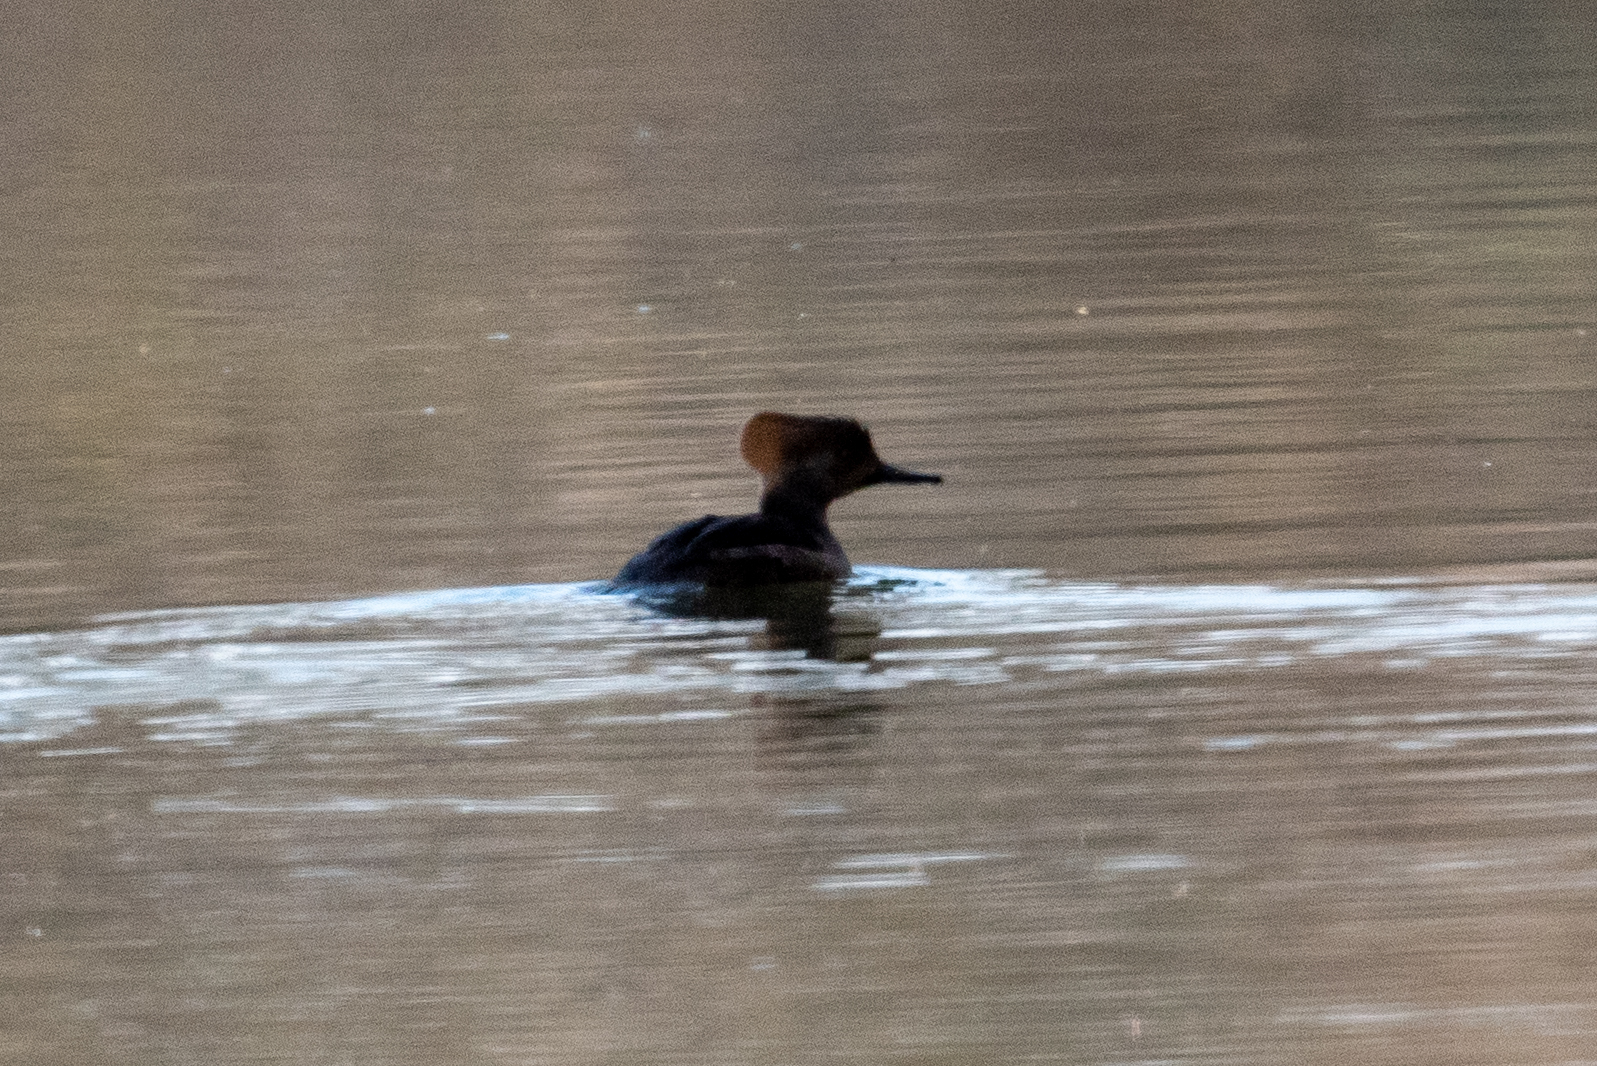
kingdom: Animalia
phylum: Chordata
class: Aves
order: Anseriformes
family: Anatidae
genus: Lophodytes
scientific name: Lophodytes cucullatus
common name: Hooded merganser
